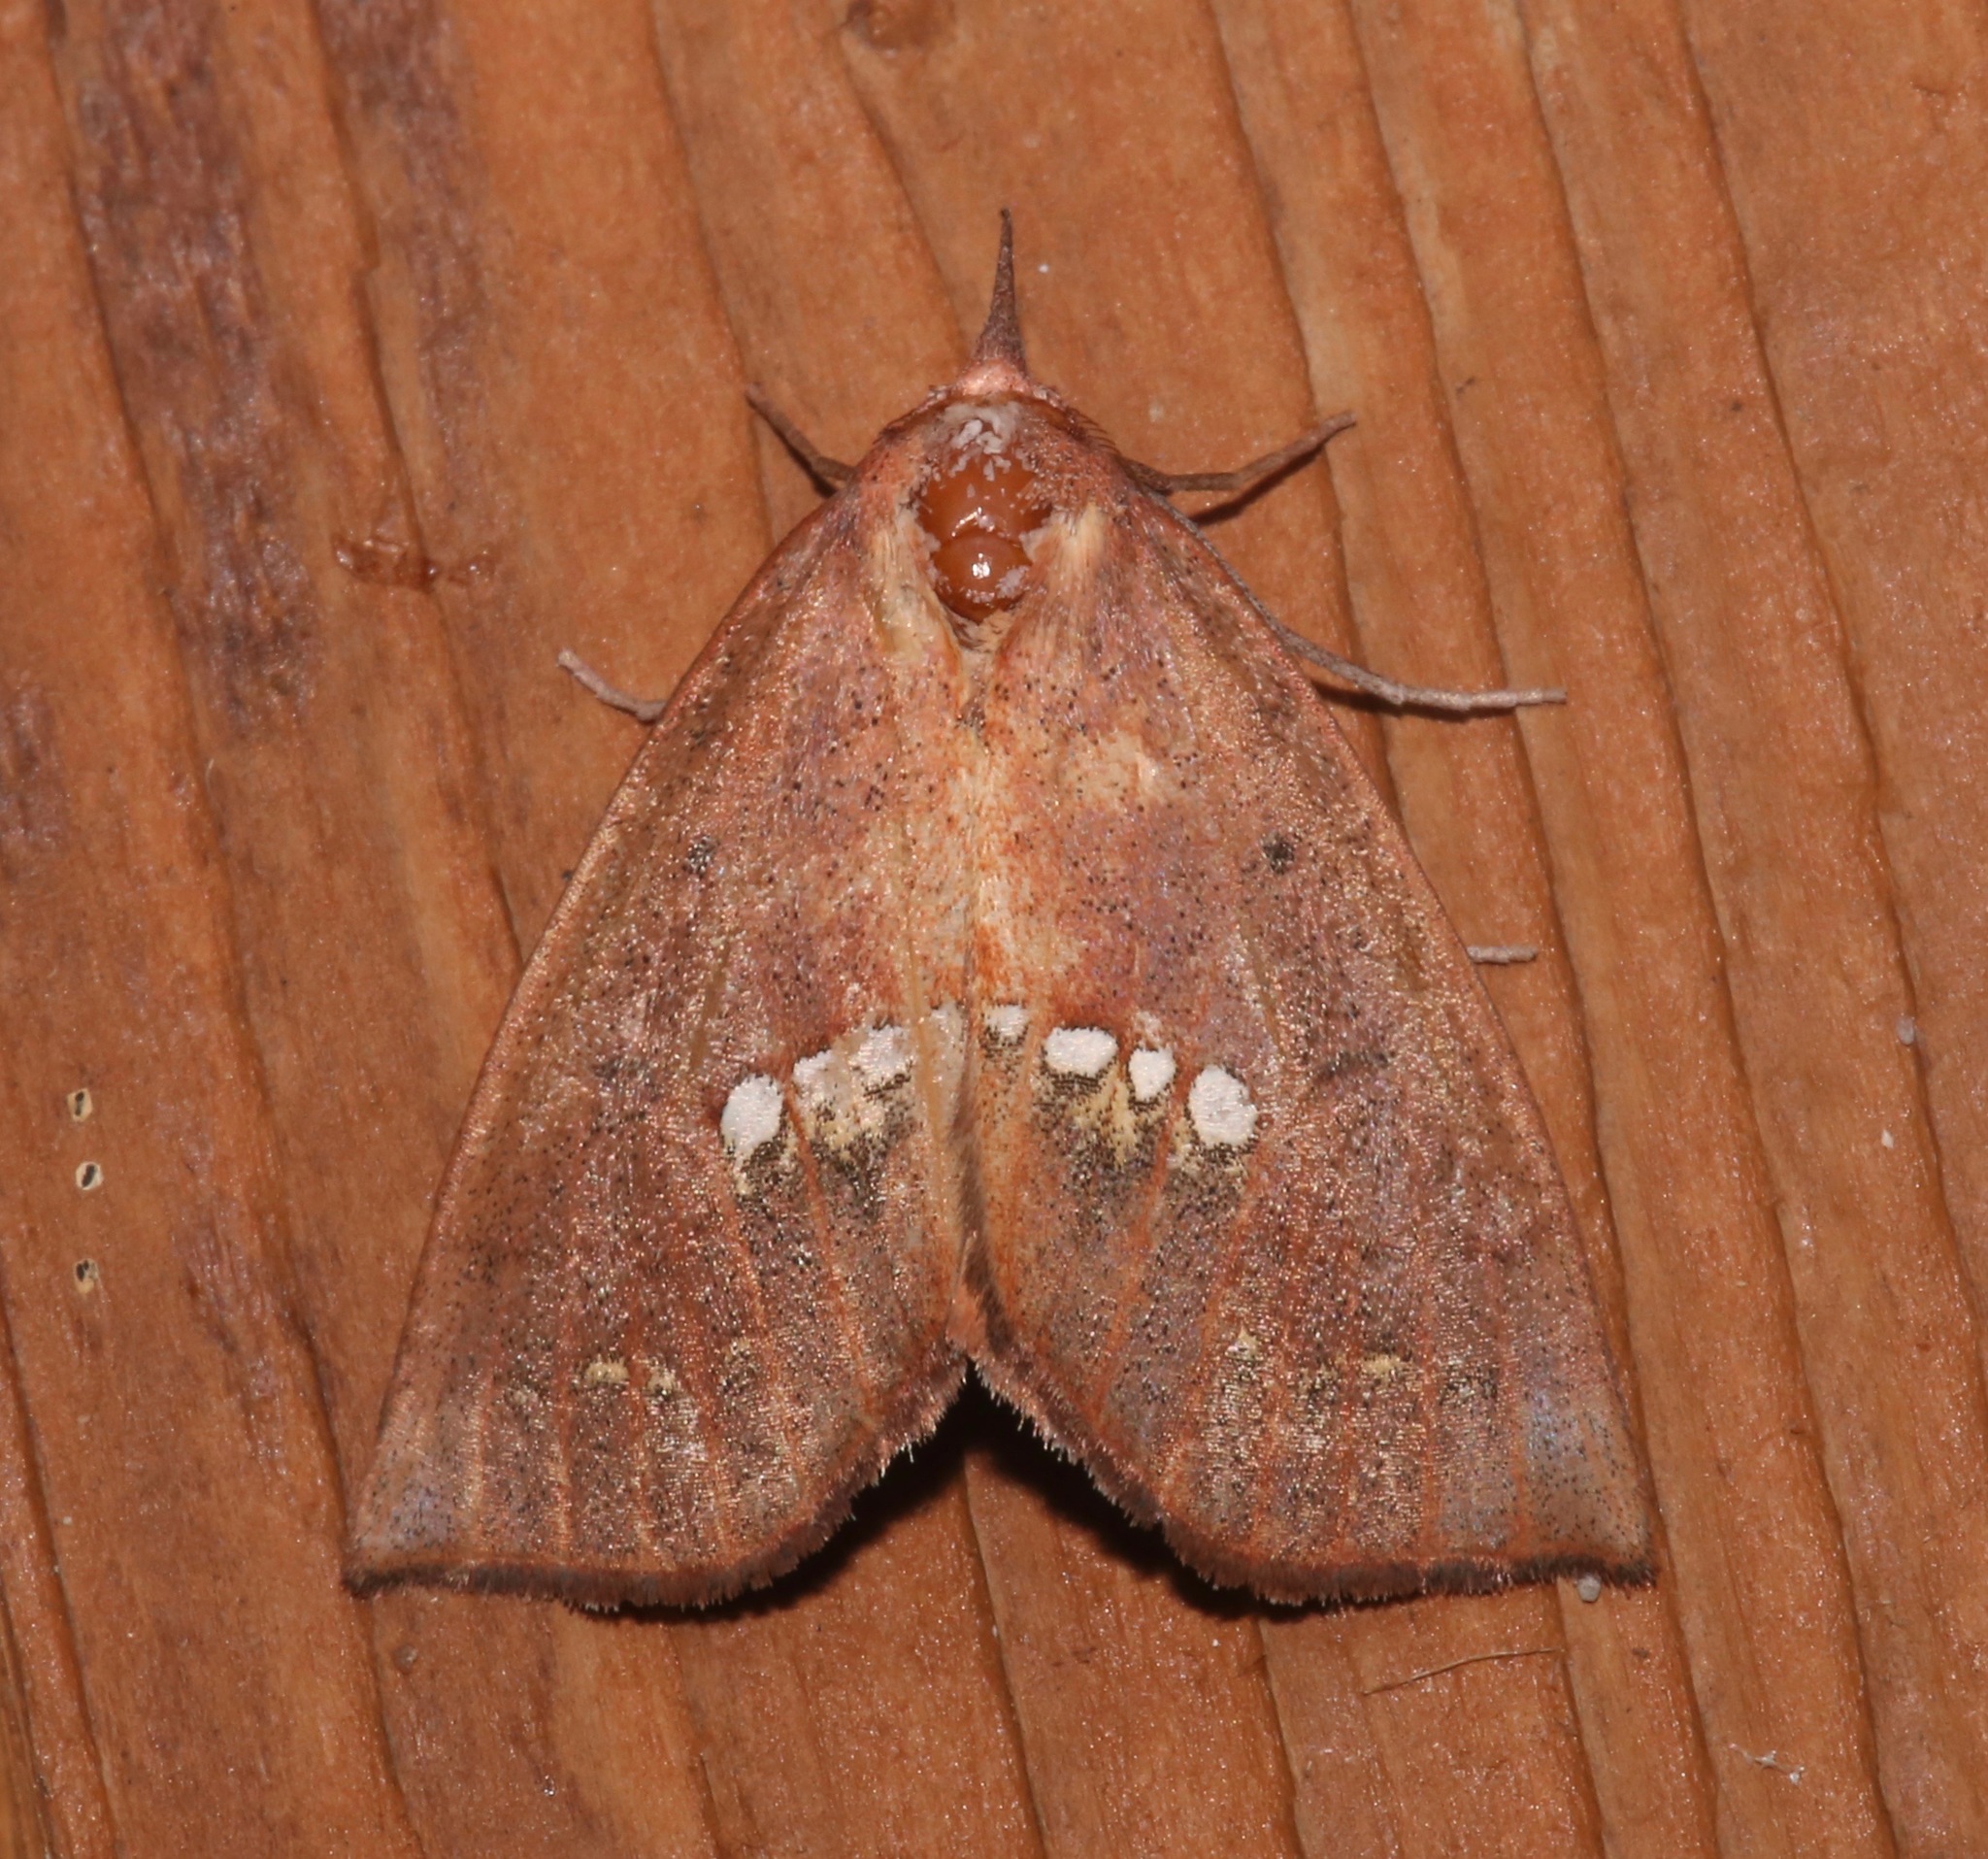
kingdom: Animalia
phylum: Arthropoda
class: Insecta
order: Lepidoptera
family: Erebidae
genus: Hypsoropha
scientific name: Hypsoropha monilis
